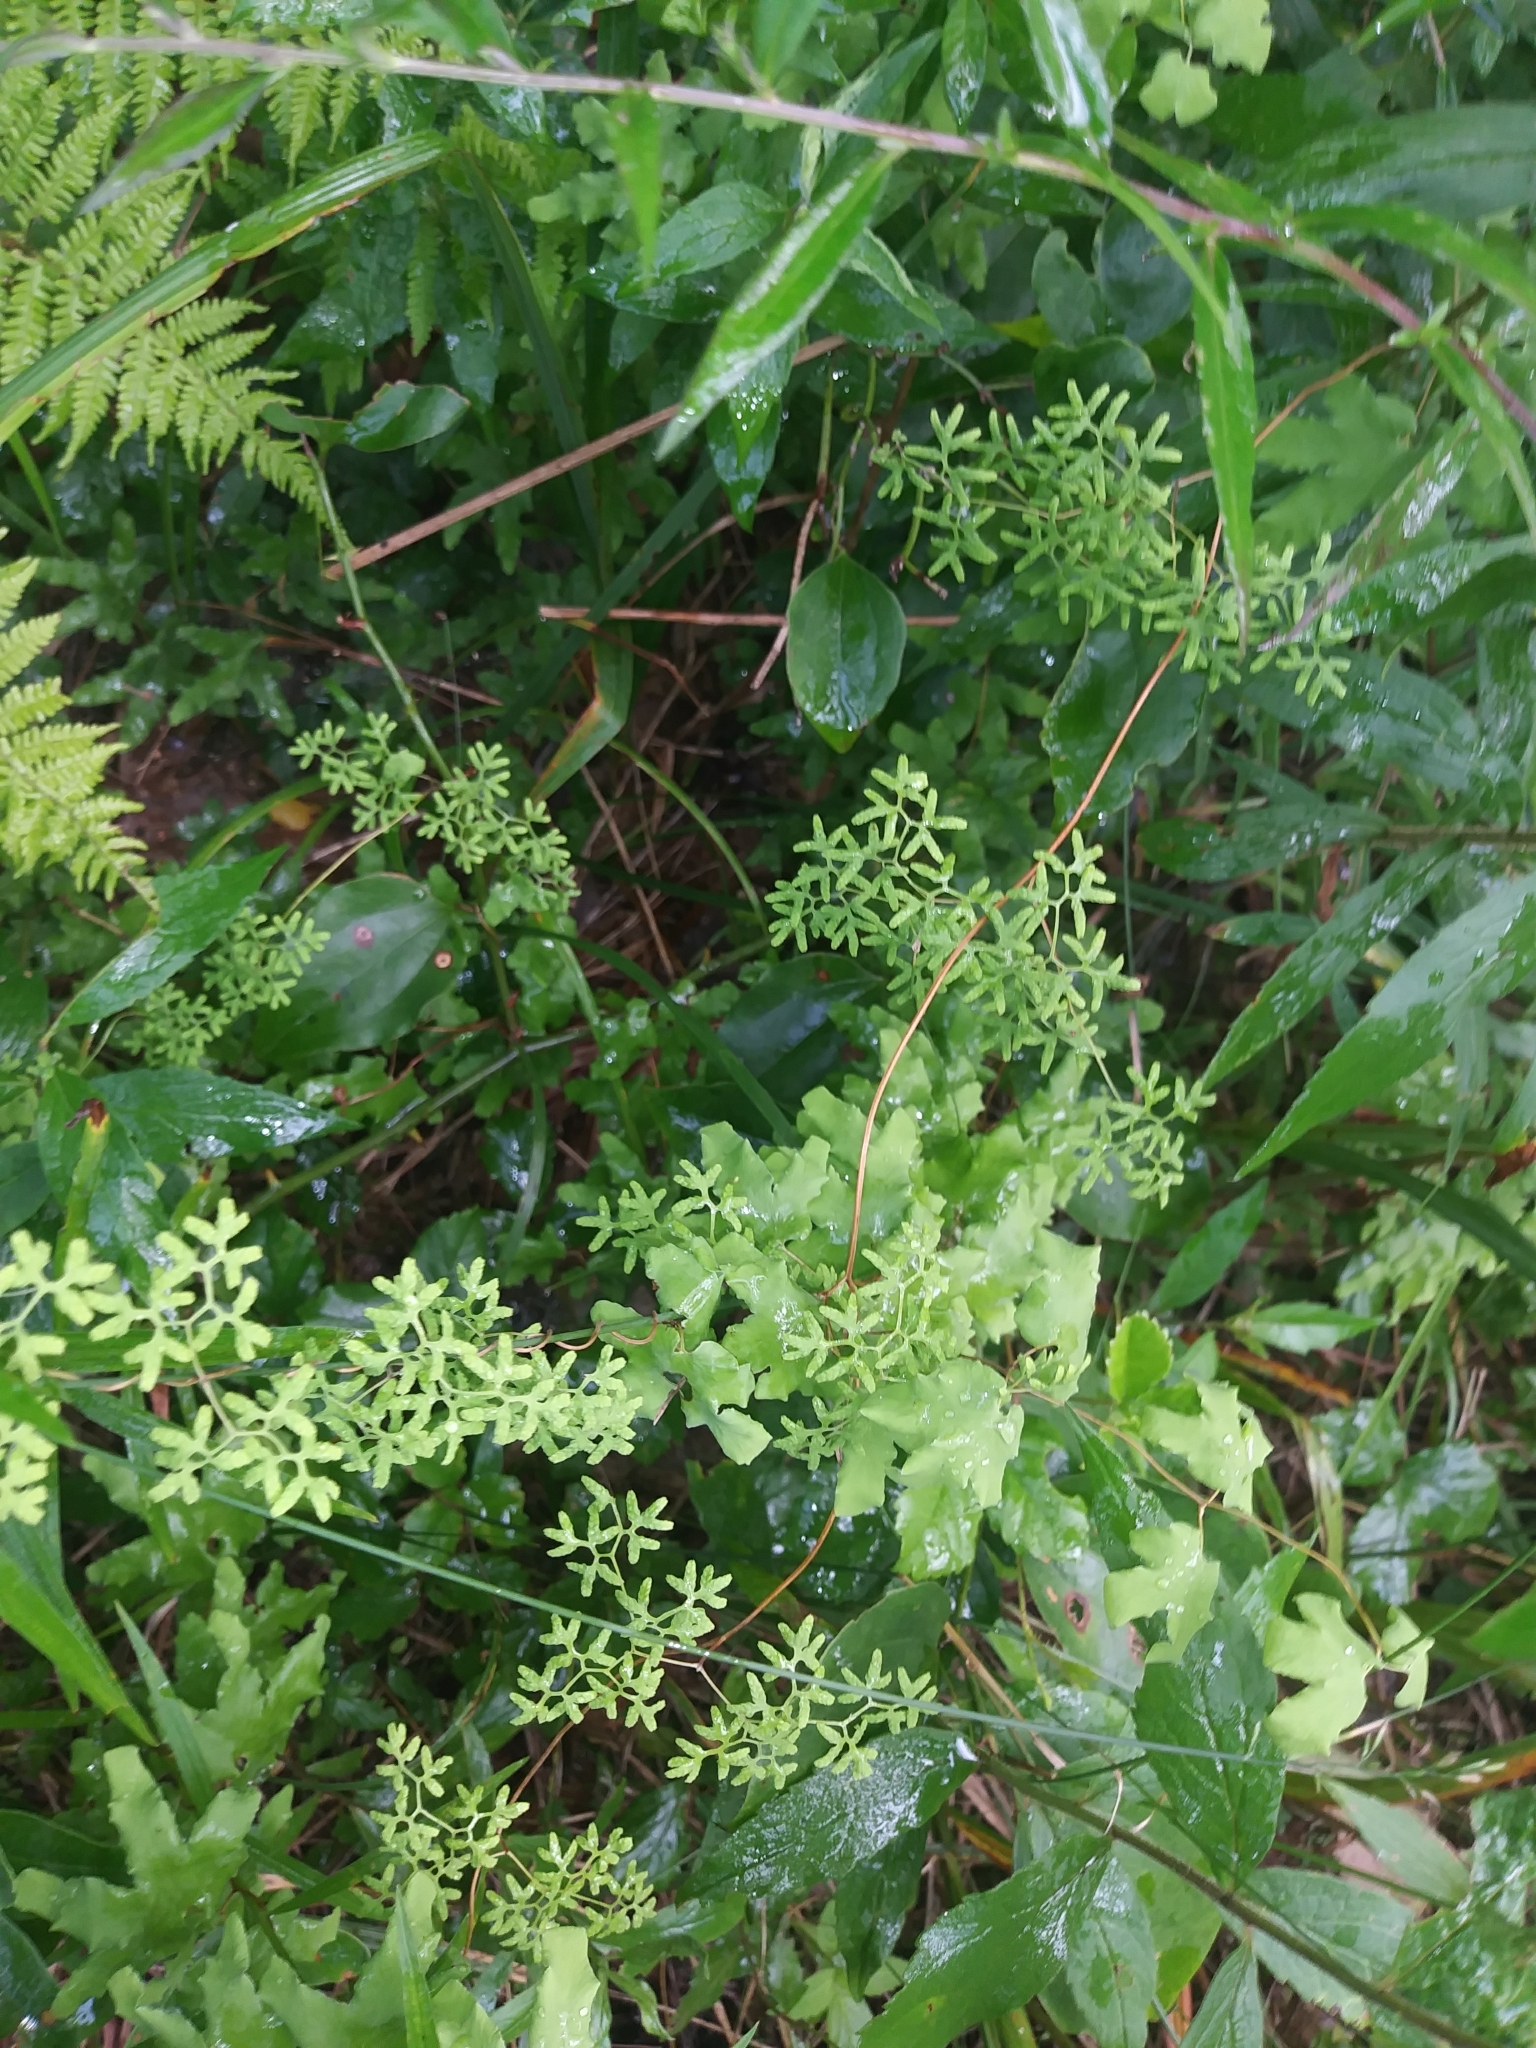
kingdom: Plantae
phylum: Tracheophyta
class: Polypodiopsida
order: Schizaeales
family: Lygodiaceae
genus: Lygodium
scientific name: Lygodium palmatum
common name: American climbing fern
